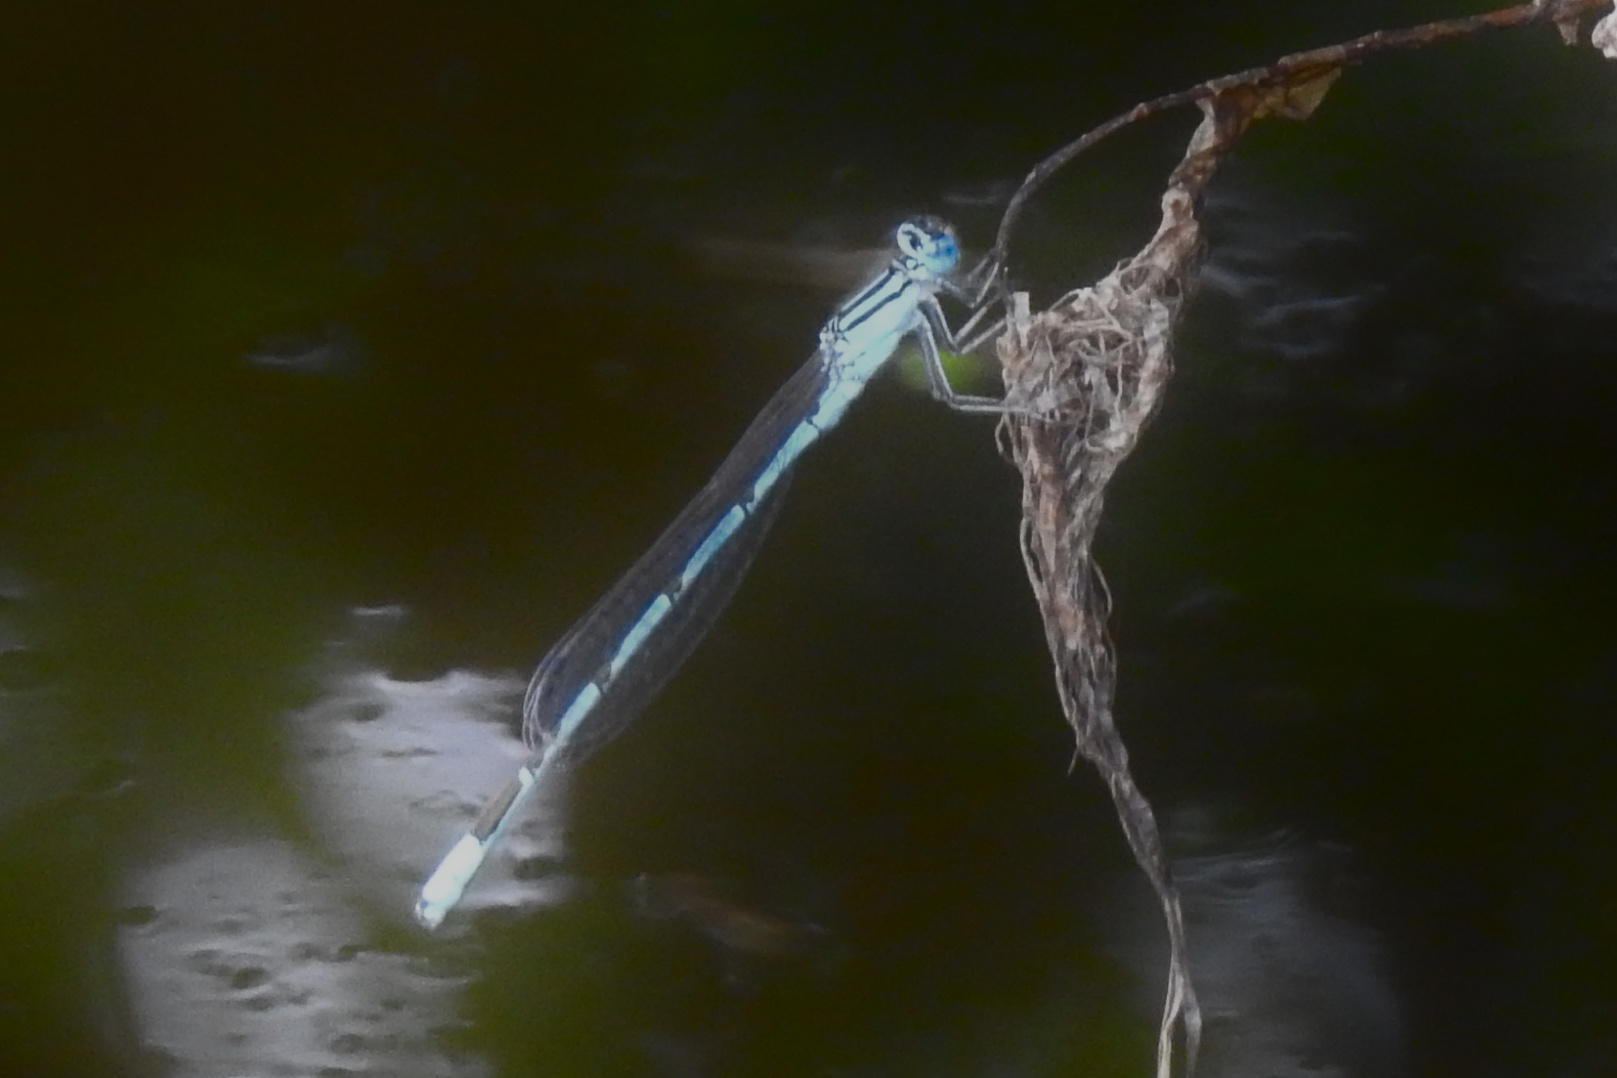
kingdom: Animalia
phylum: Arthropoda
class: Insecta
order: Odonata
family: Coenagrionidae
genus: Enallagma
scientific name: Enallagma durum
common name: Big bluet
